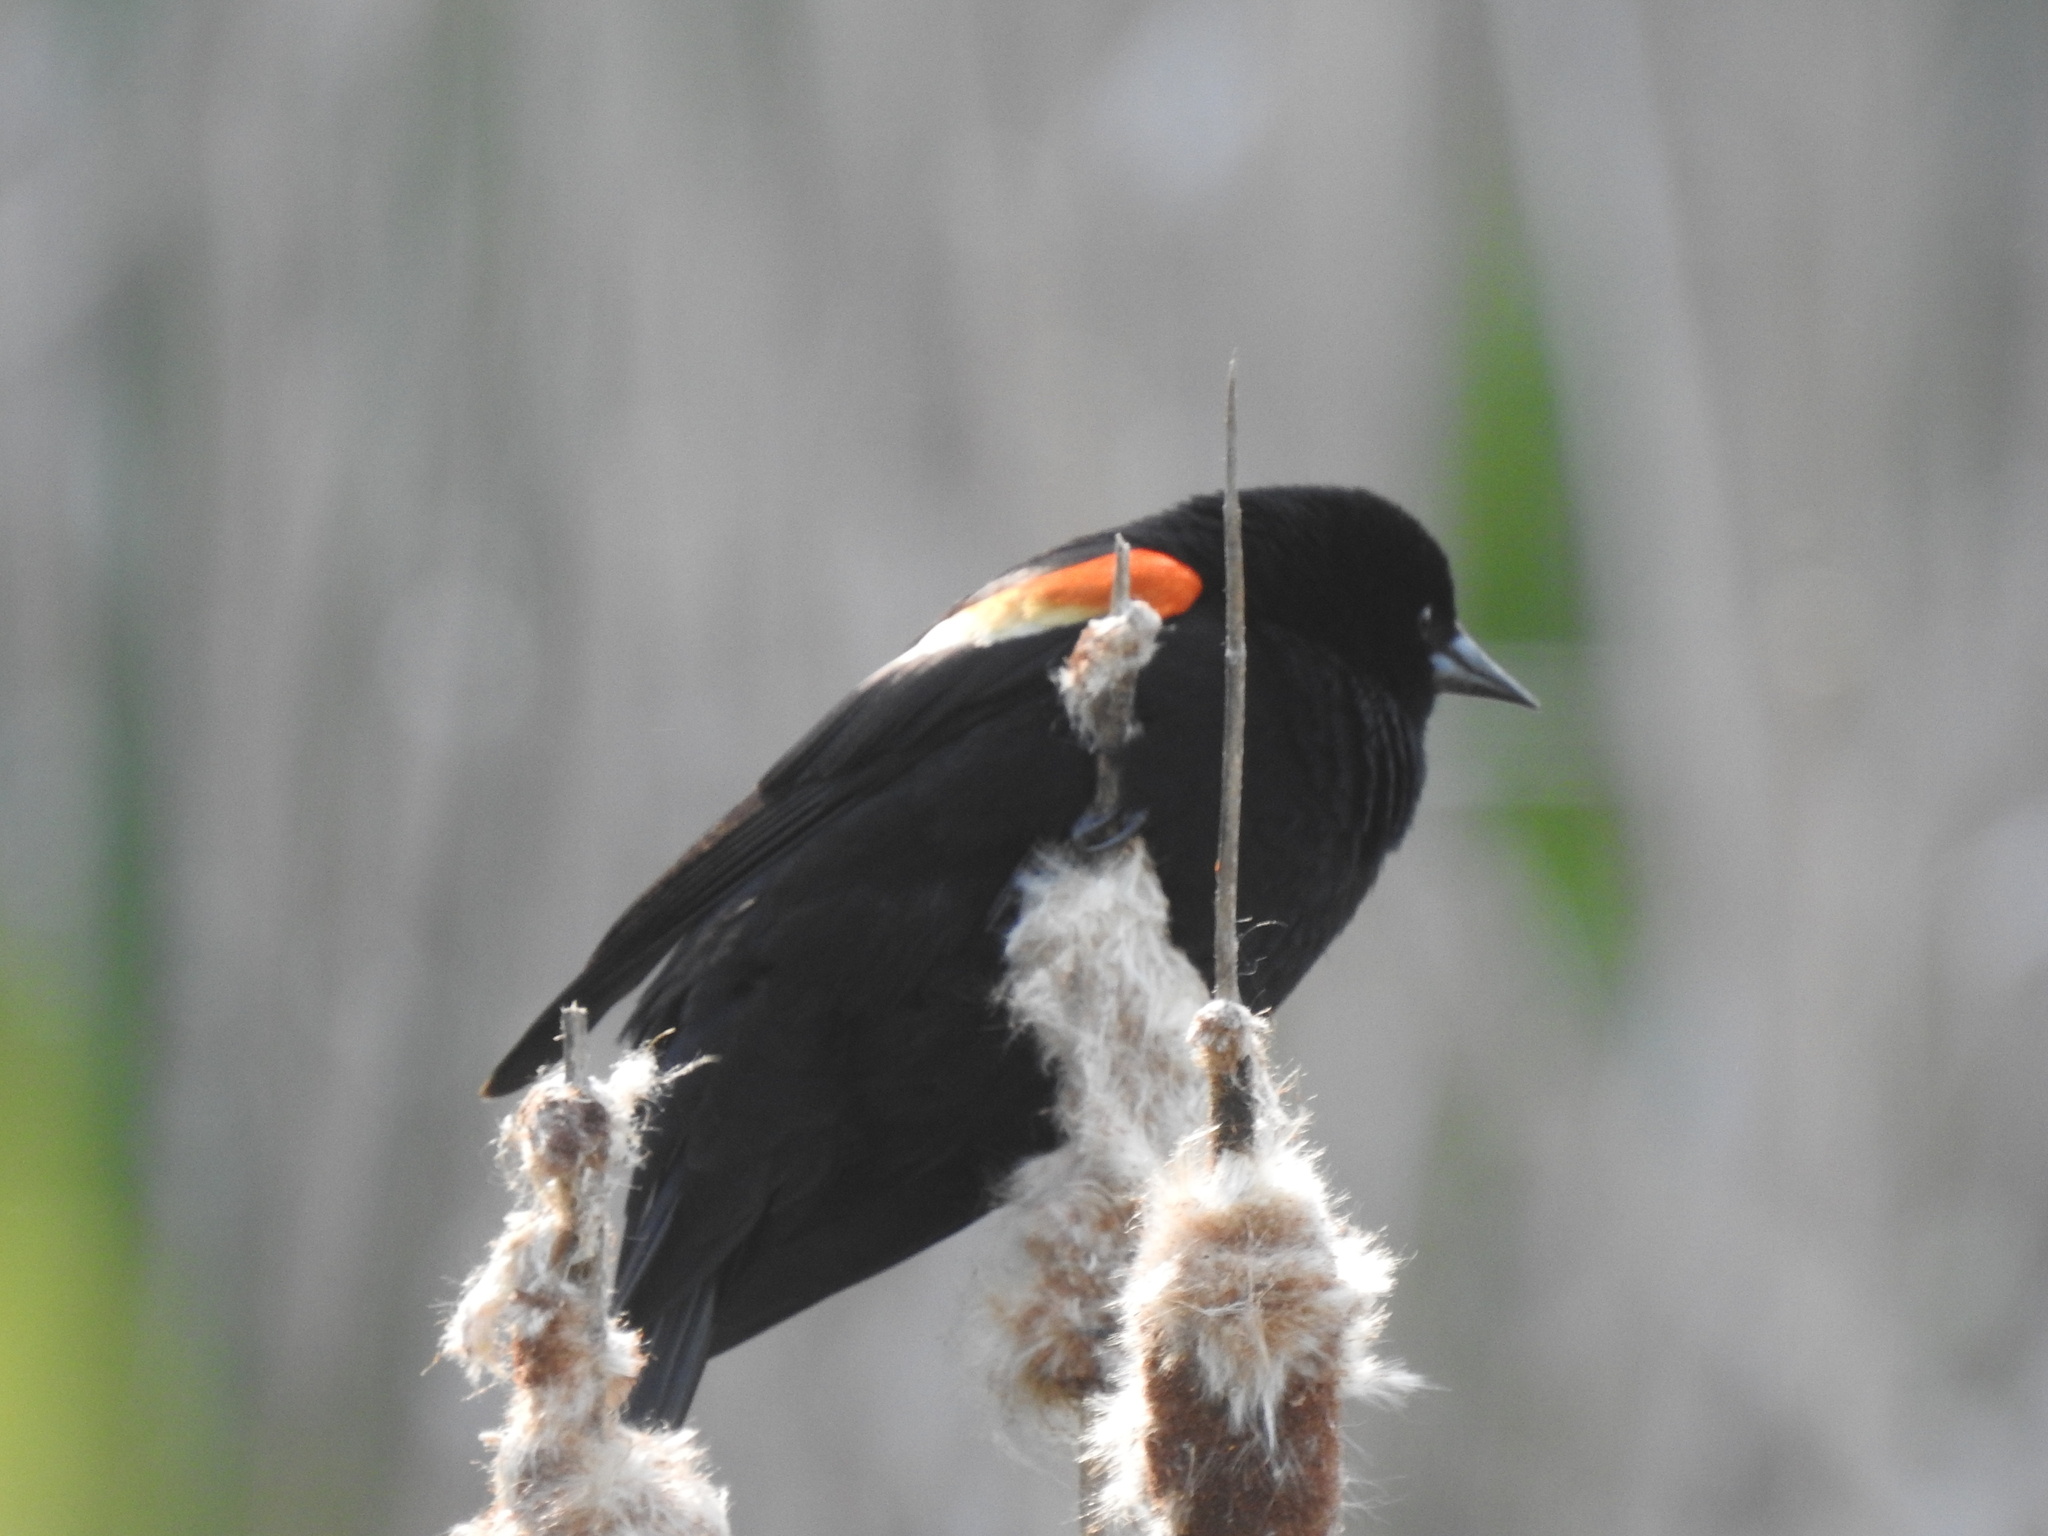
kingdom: Animalia
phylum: Chordata
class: Aves
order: Passeriformes
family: Icteridae
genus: Agelaius
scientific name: Agelaius phoeniceus
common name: Red-winged blackbird
